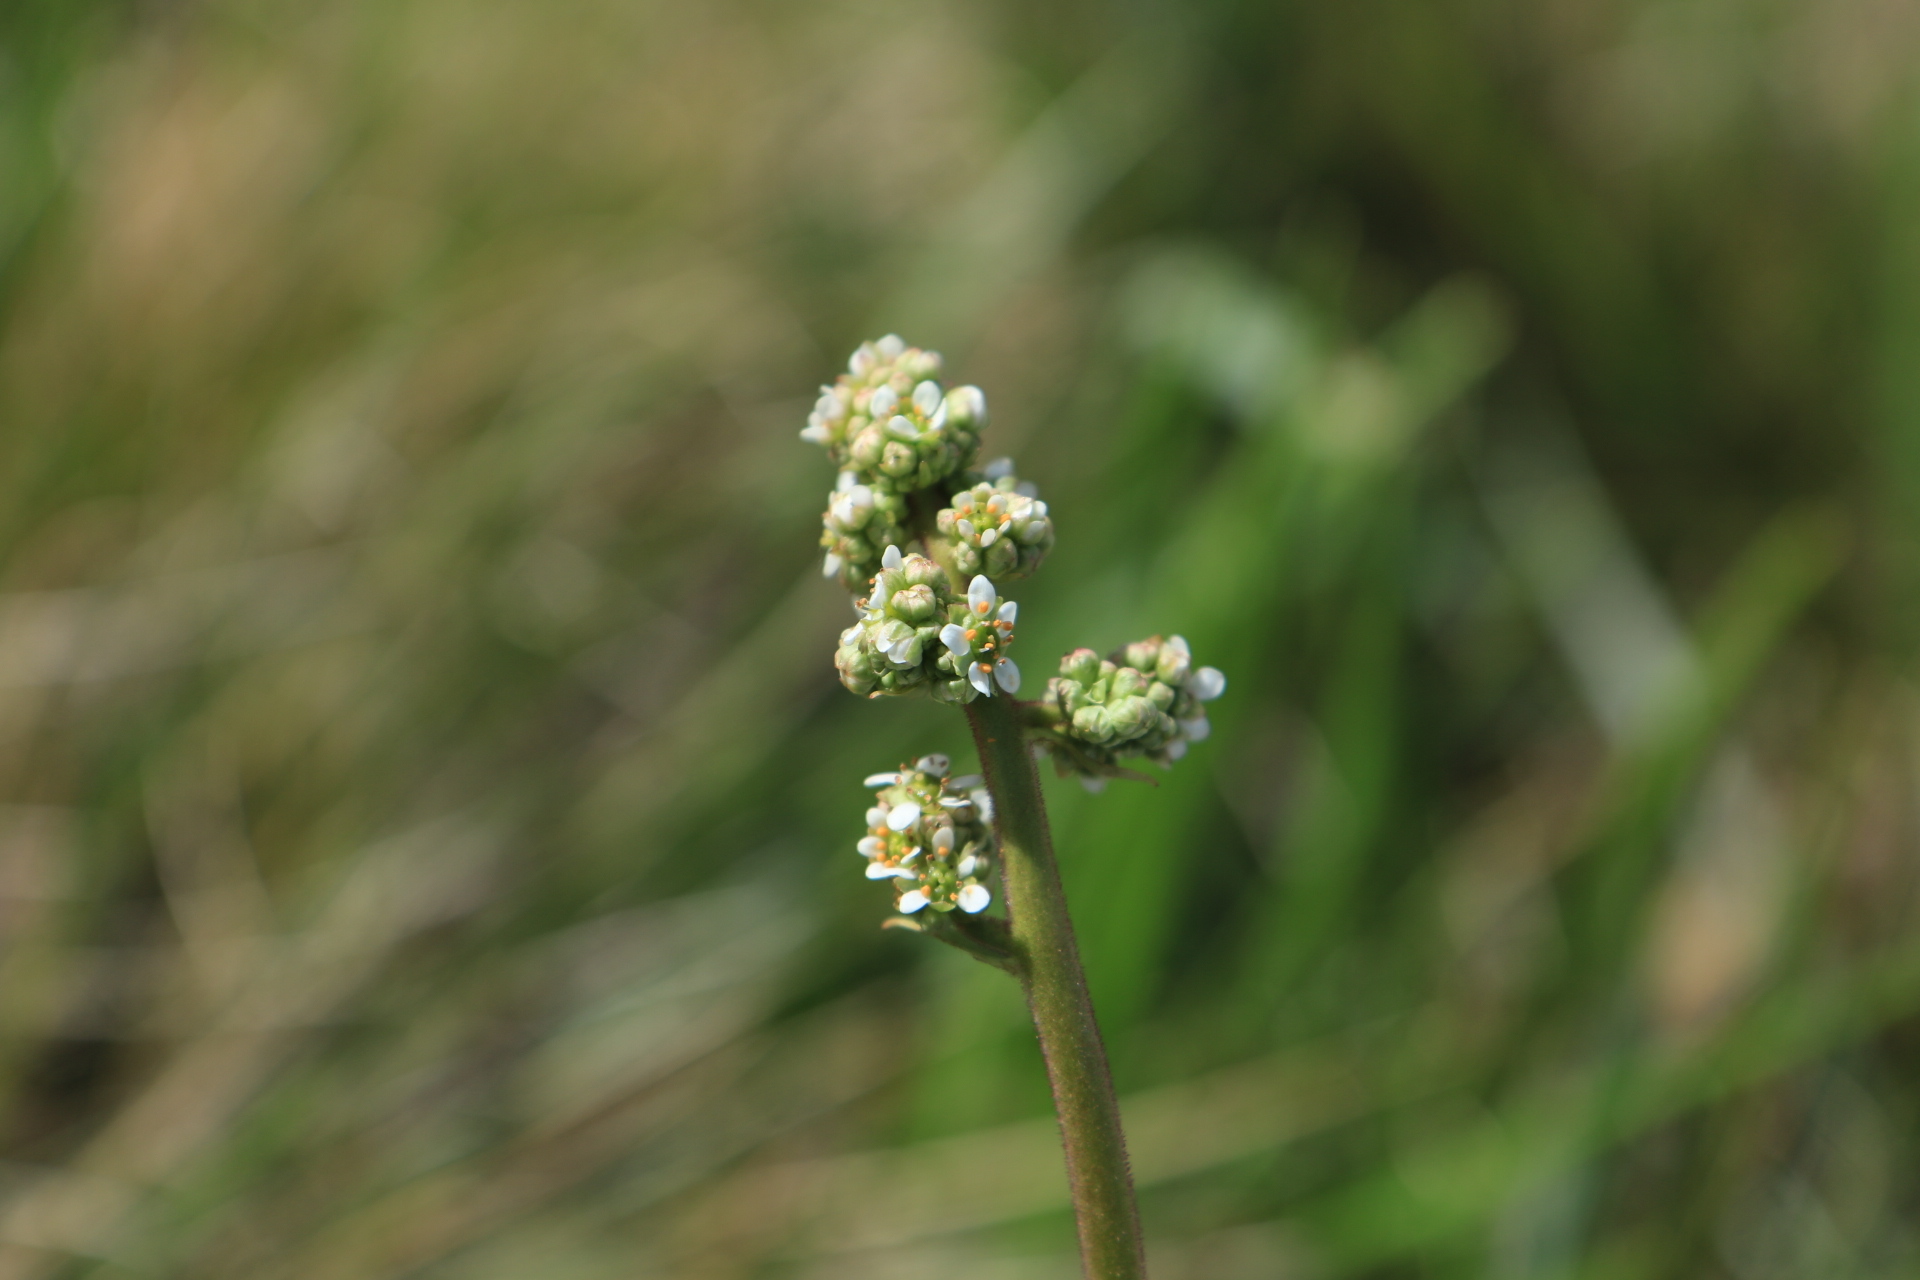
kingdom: Plantae
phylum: Tracheophyta
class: Magnoliopsida
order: Saxifragales
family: Saxifragaceae
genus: Micranthes
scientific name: Micranthes oregana
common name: Bog saxifrage
